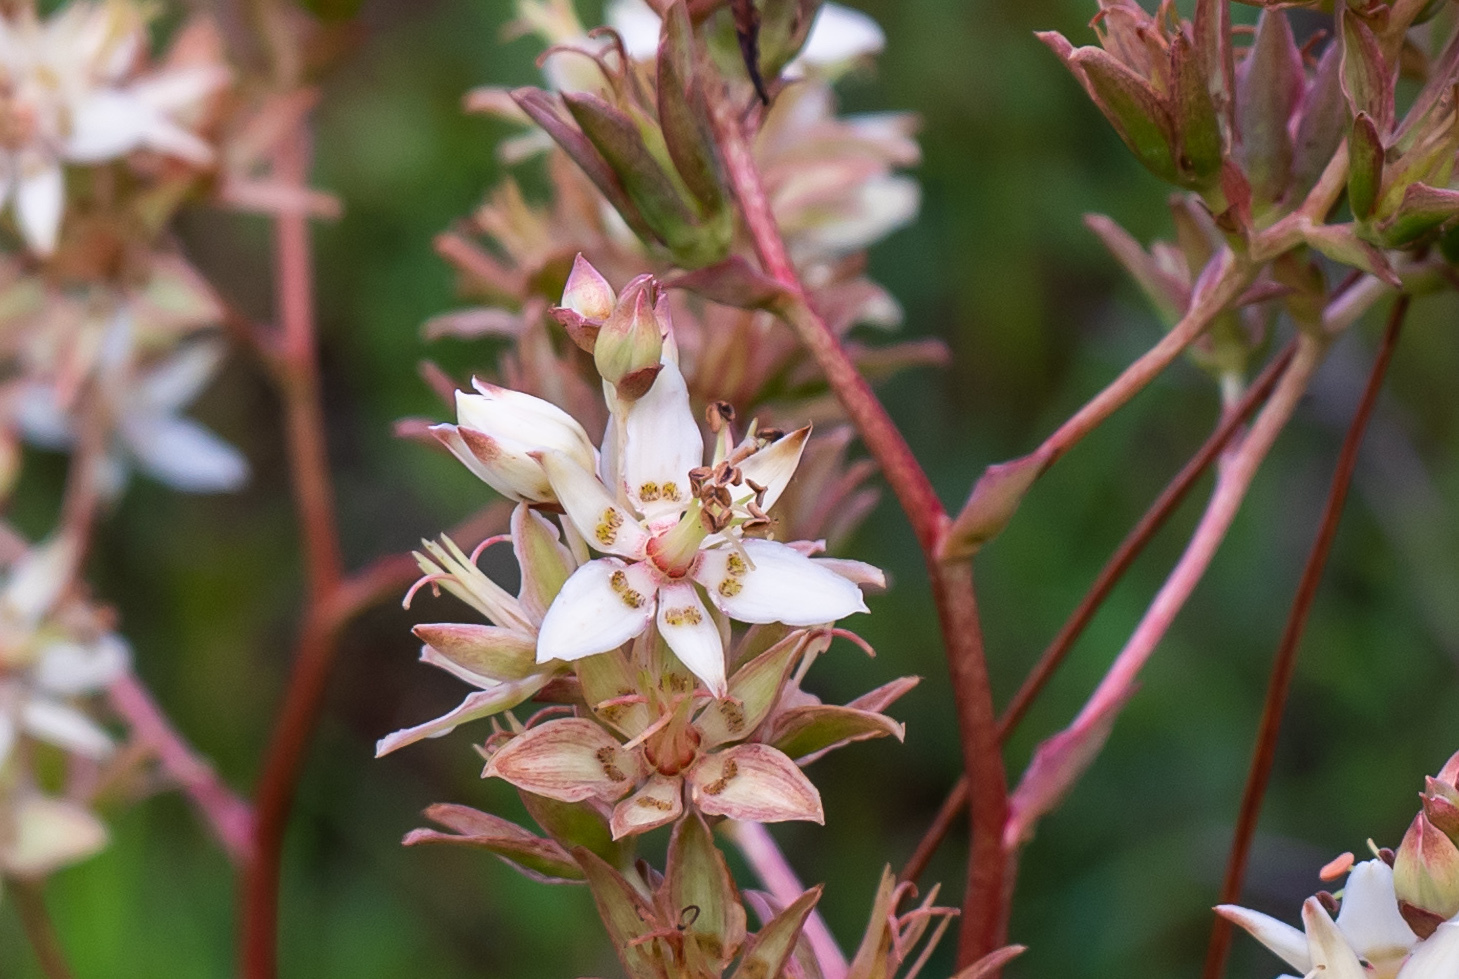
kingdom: Plantae
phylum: Tracheophyta
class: Liliopsida
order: Liliales
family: Melanthiaceae
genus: Zigadenus
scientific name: Zigadenus glaberrimus
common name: Sandbog death camas
